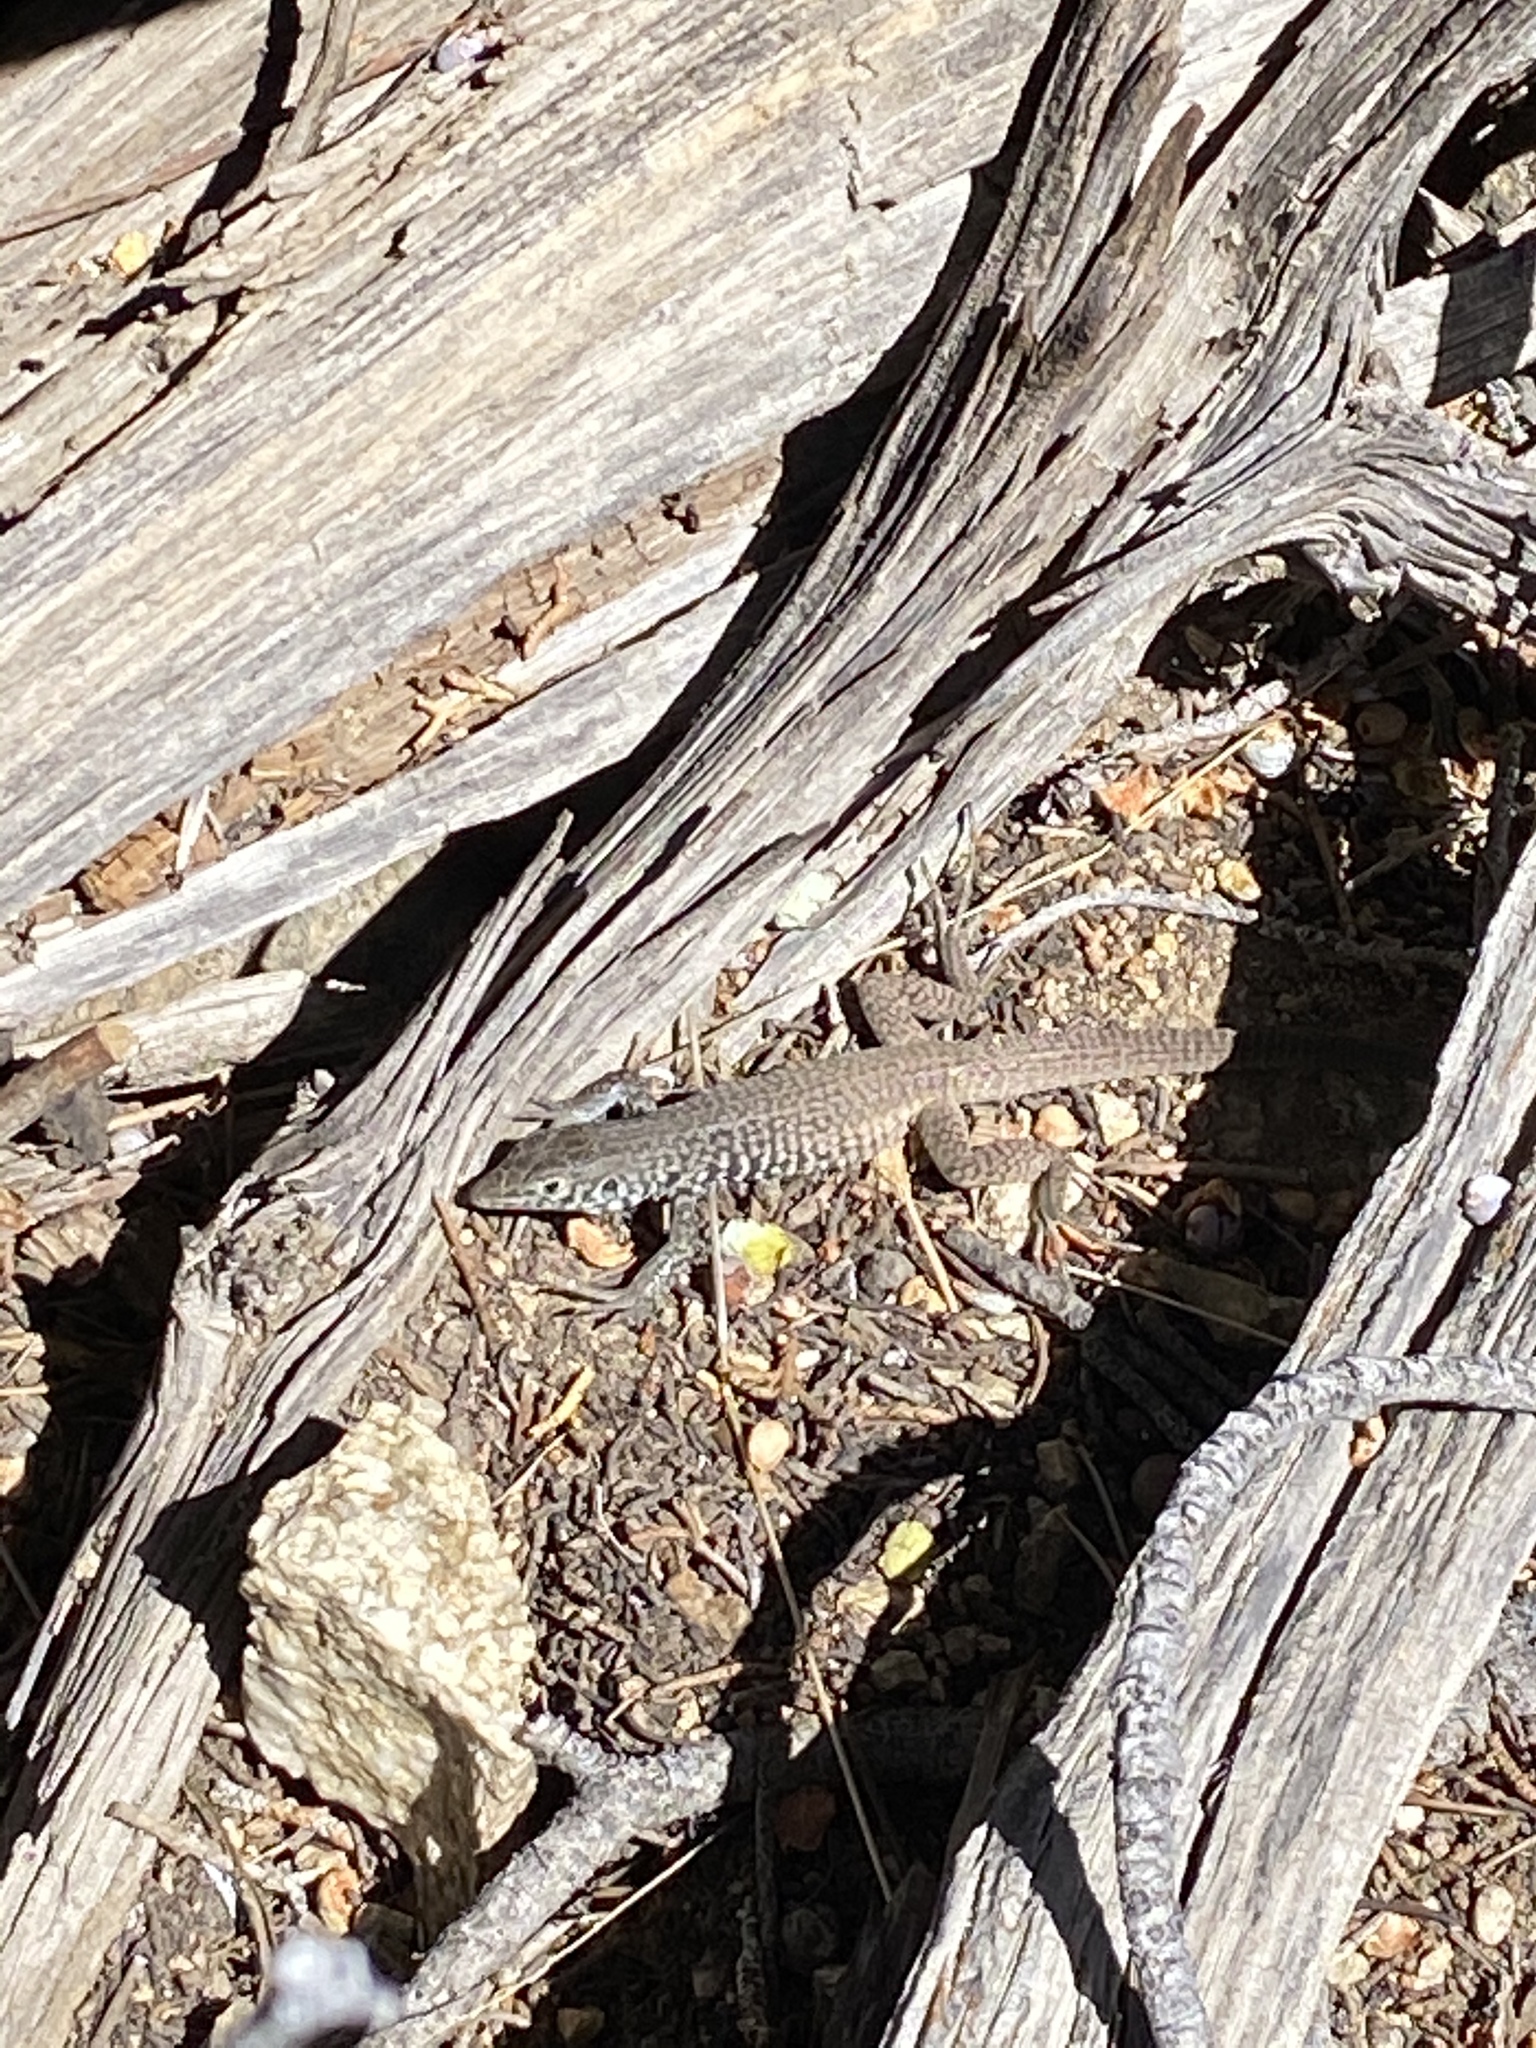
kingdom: Animalia
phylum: Chordata
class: Squamata
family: Teiidae
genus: Aspidoscelis
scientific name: Aspidoscelis tigris
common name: Tiger whiptail
